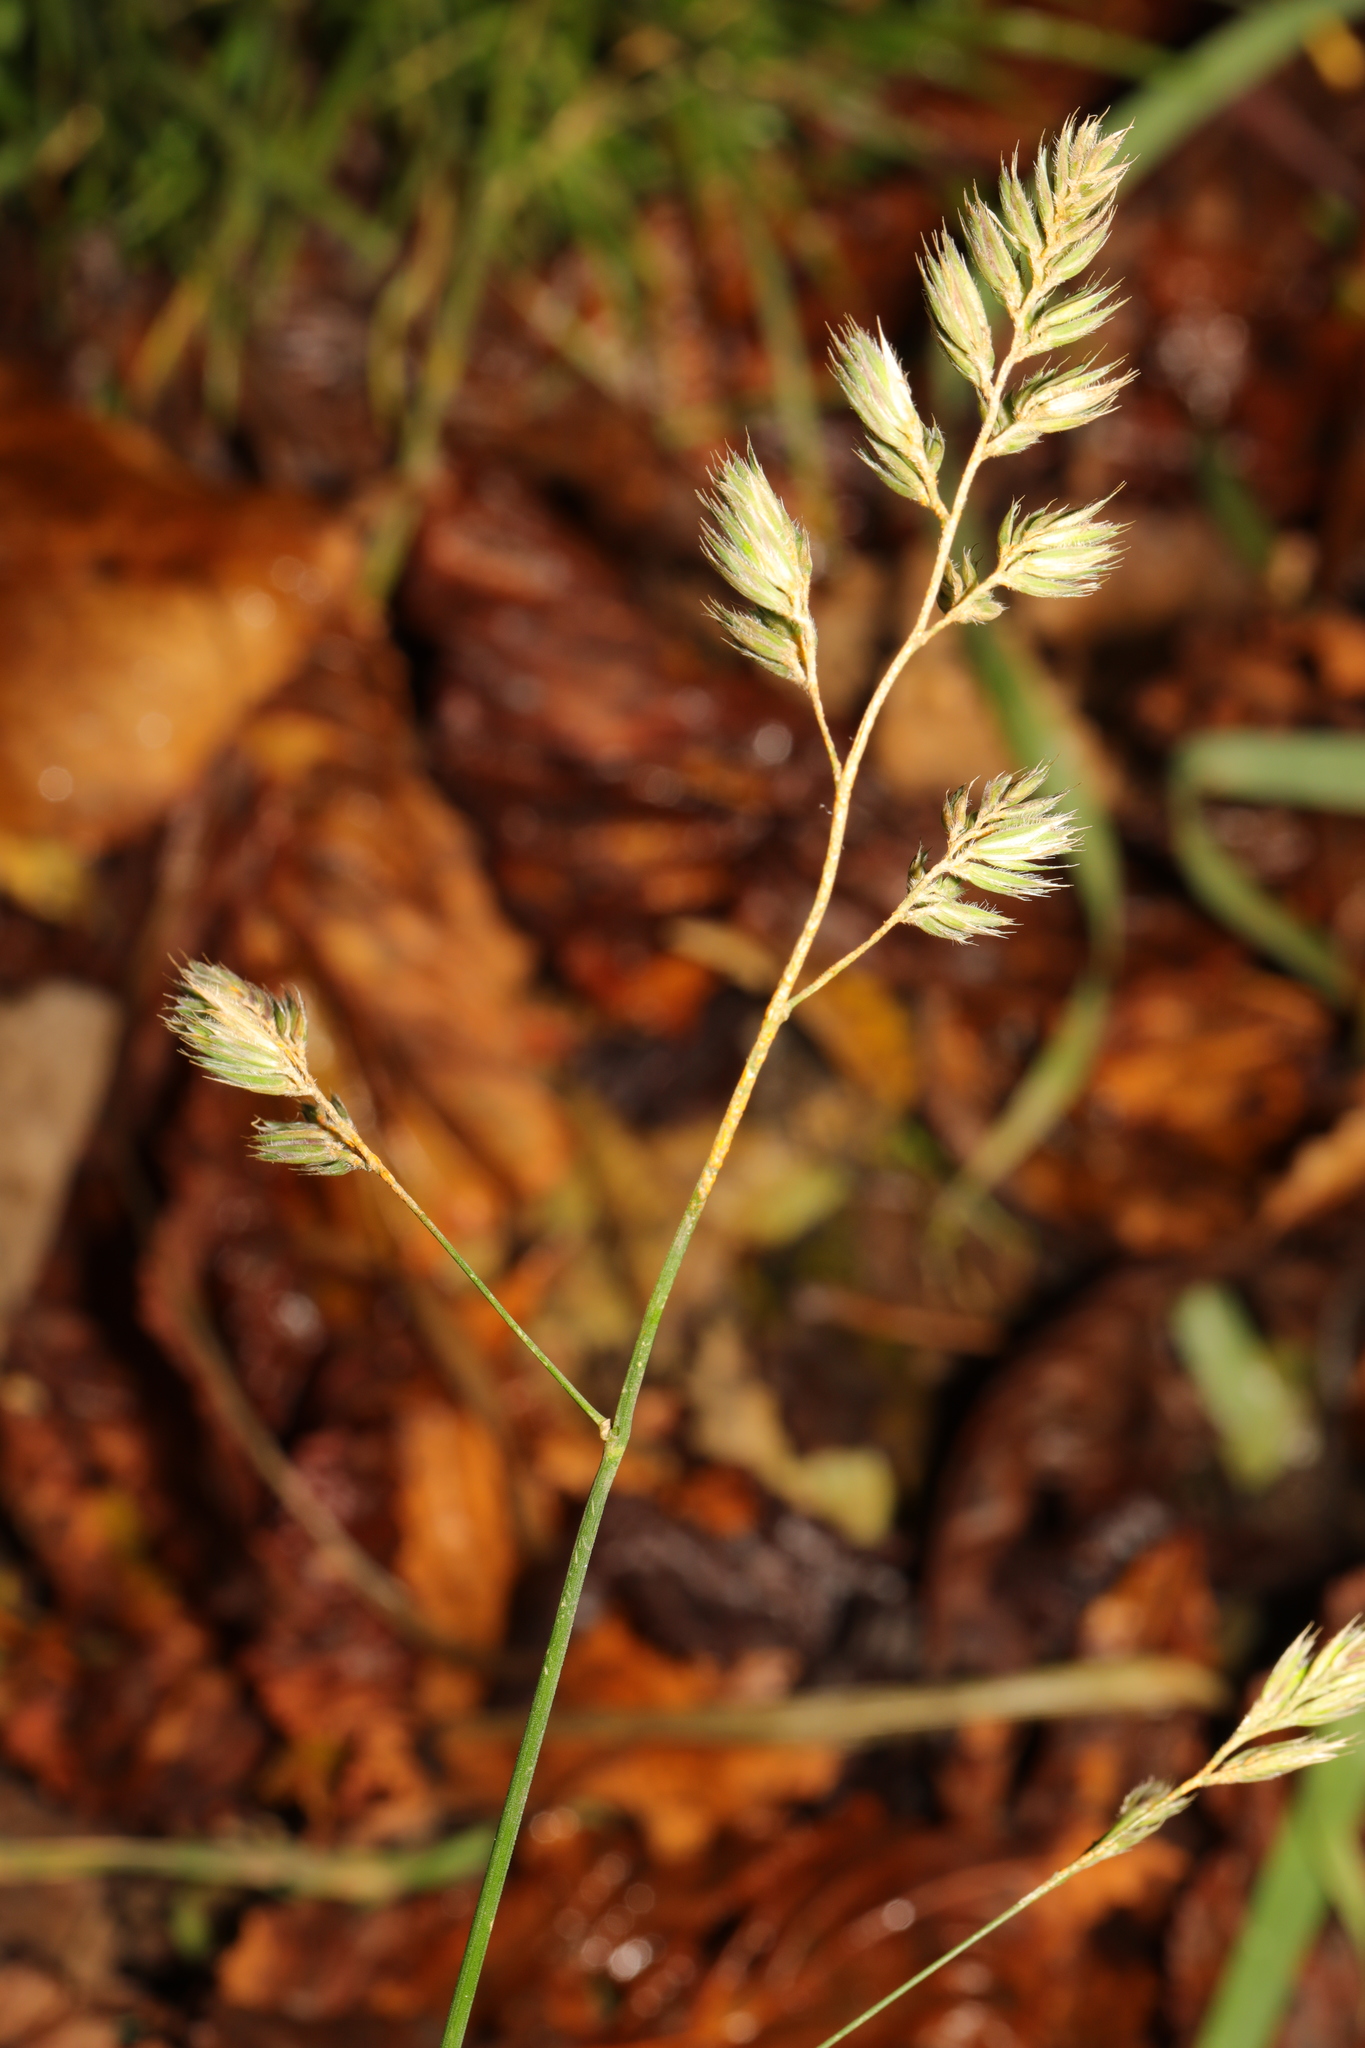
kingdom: Plantae
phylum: Tracheophyta
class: Liliopsida
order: Poales
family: Poaceae
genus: Dactylis
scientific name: Dactylis glomerata
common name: Orchardgrass
